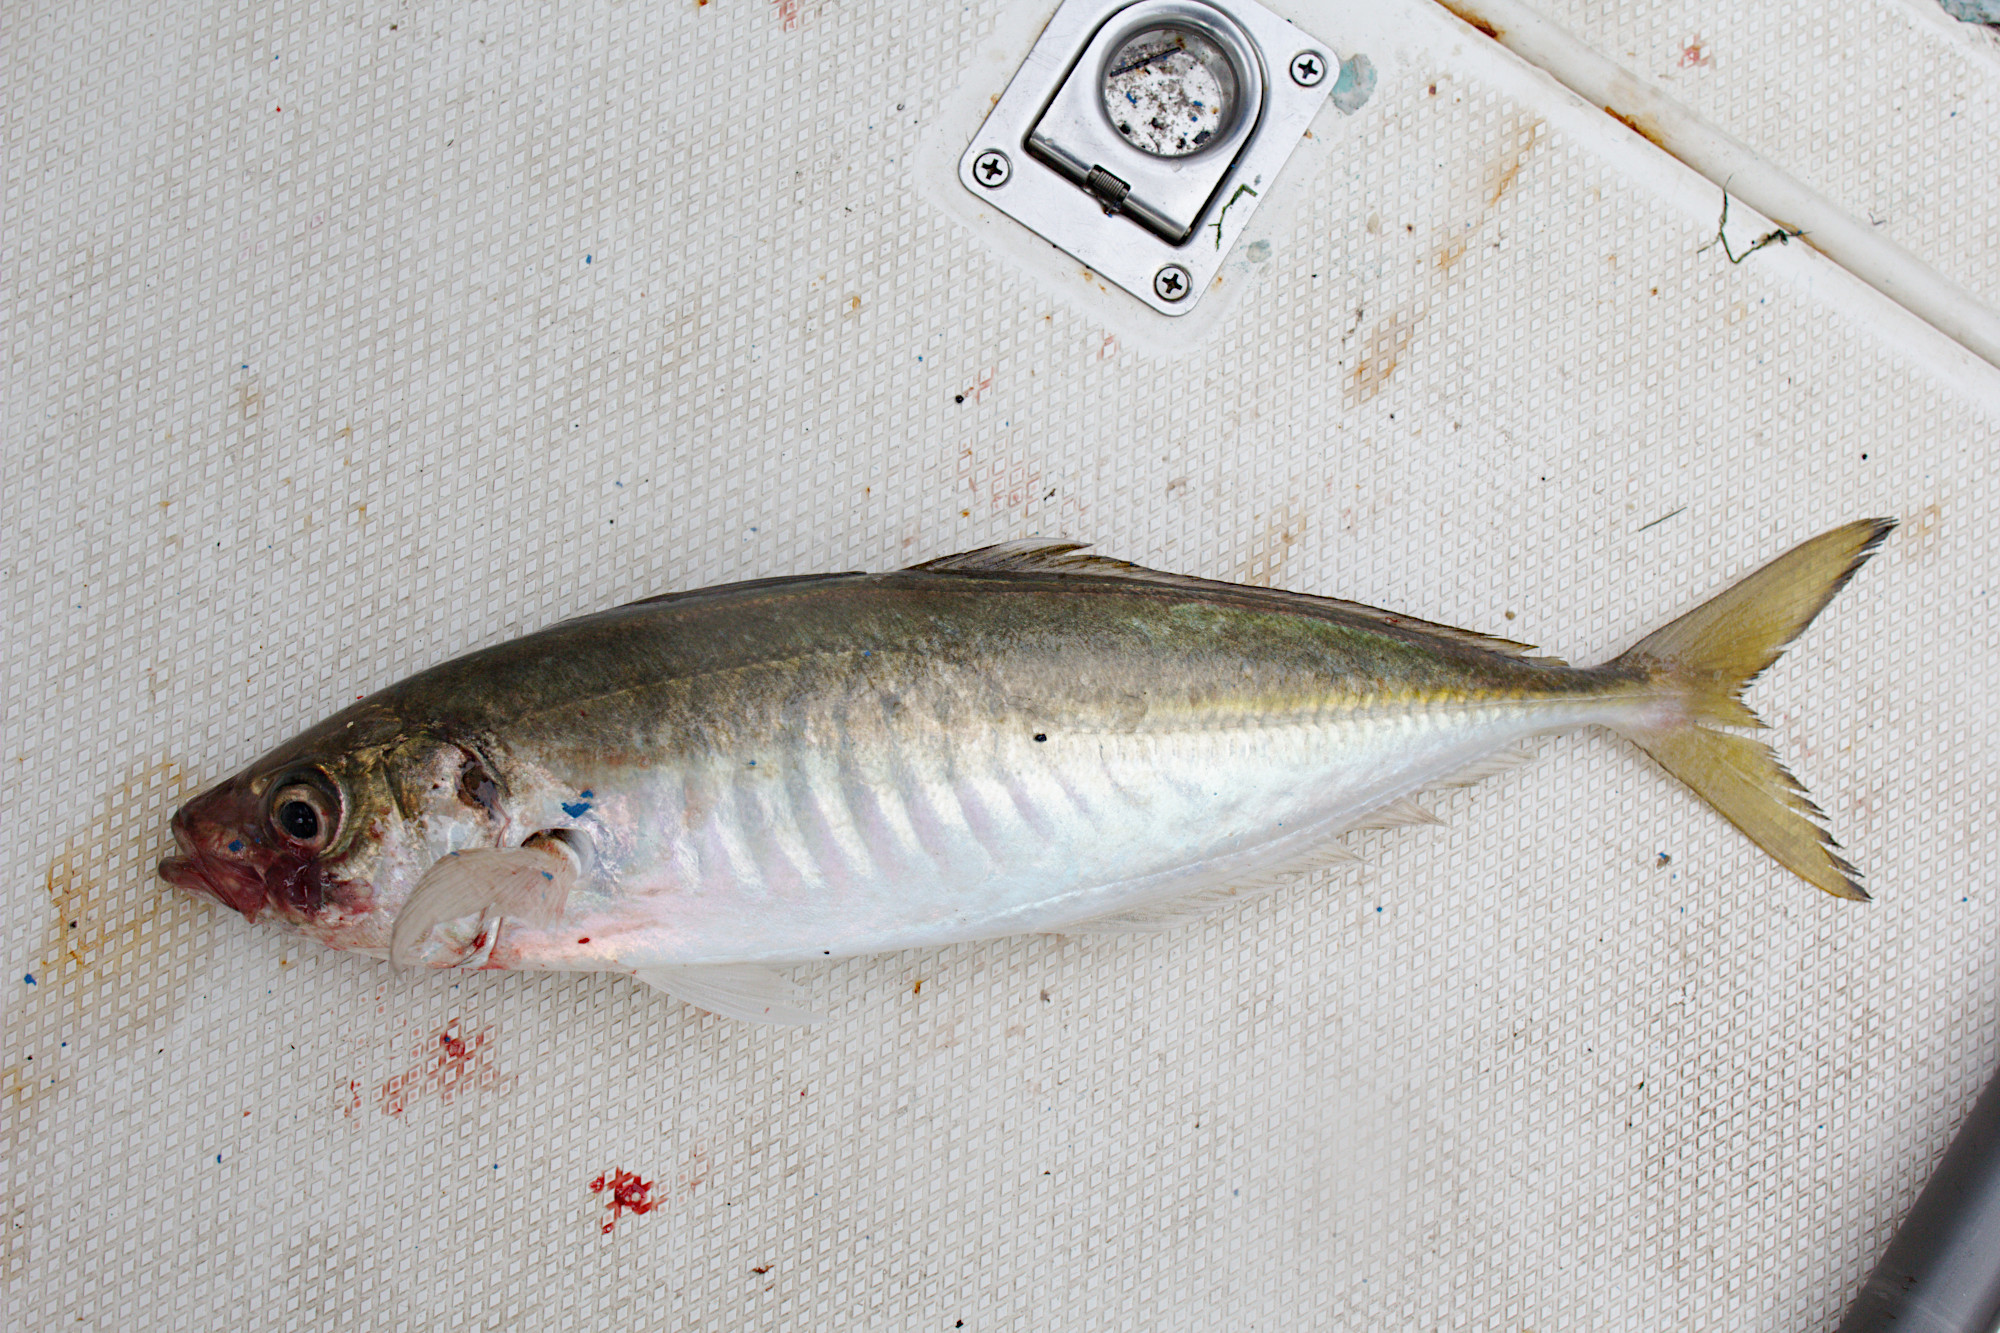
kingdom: Animalia
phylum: Chordata
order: Perciformes
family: Carangidae
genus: Trachurus
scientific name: Trachurus novaezelandiae
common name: Yellowtail horse mackerel
